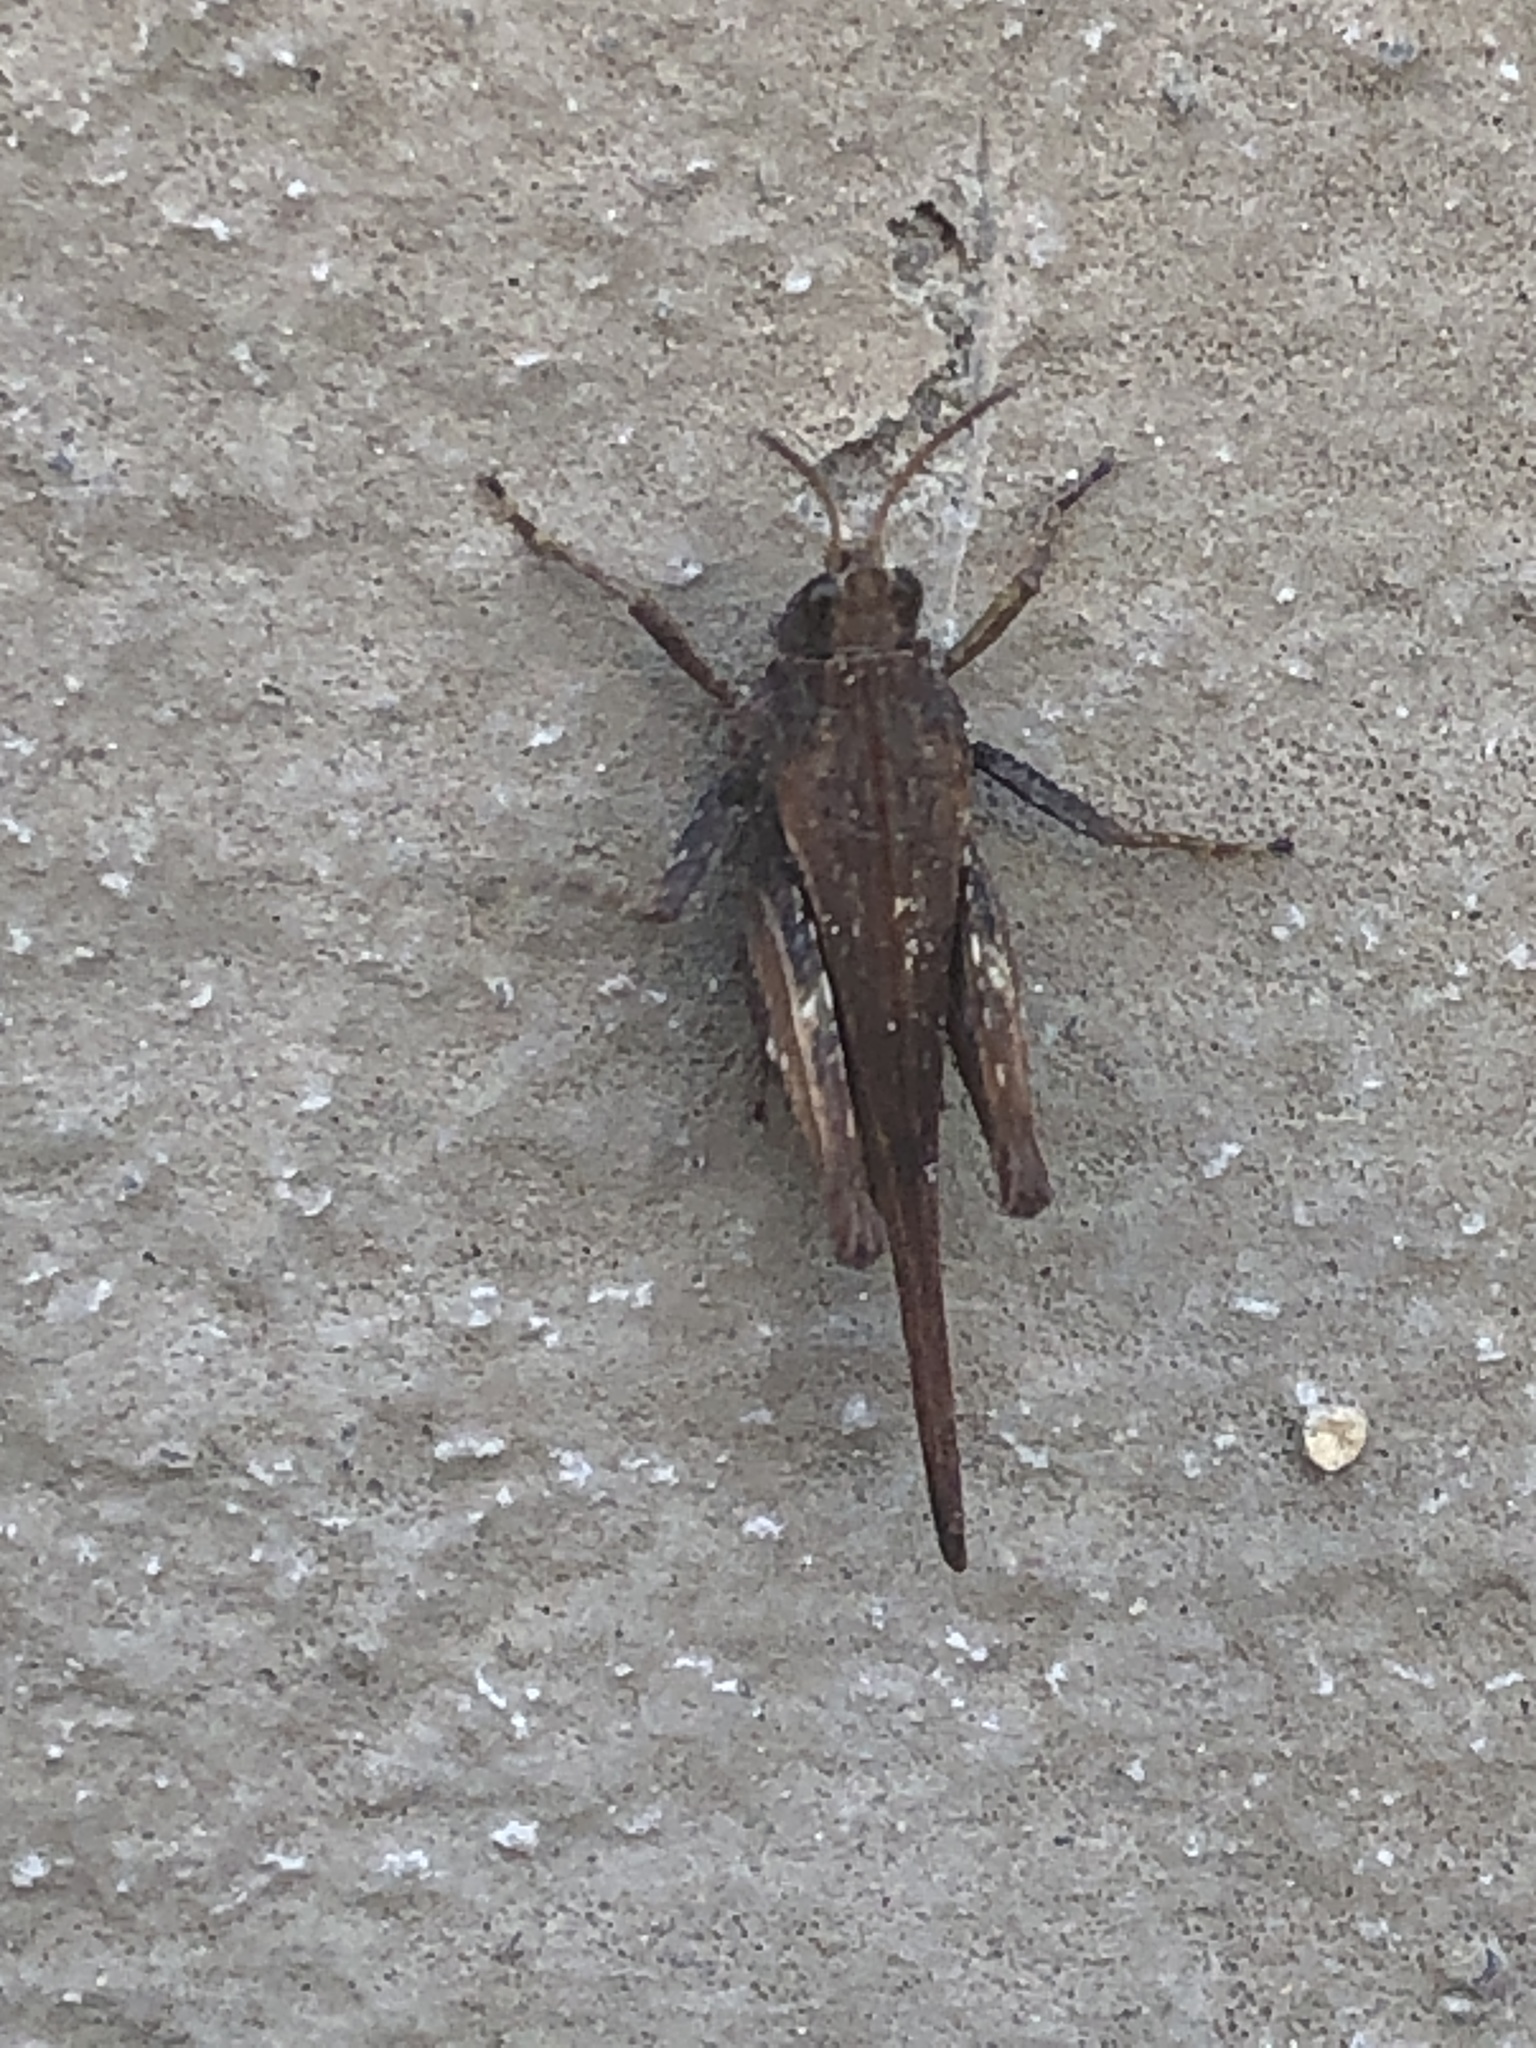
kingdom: Animalia
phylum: Arthropoda
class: Insecta
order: Orthoptera
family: Tetrigidae
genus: Tetrix
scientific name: Tetrix subulata
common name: Slender ground-hopper
